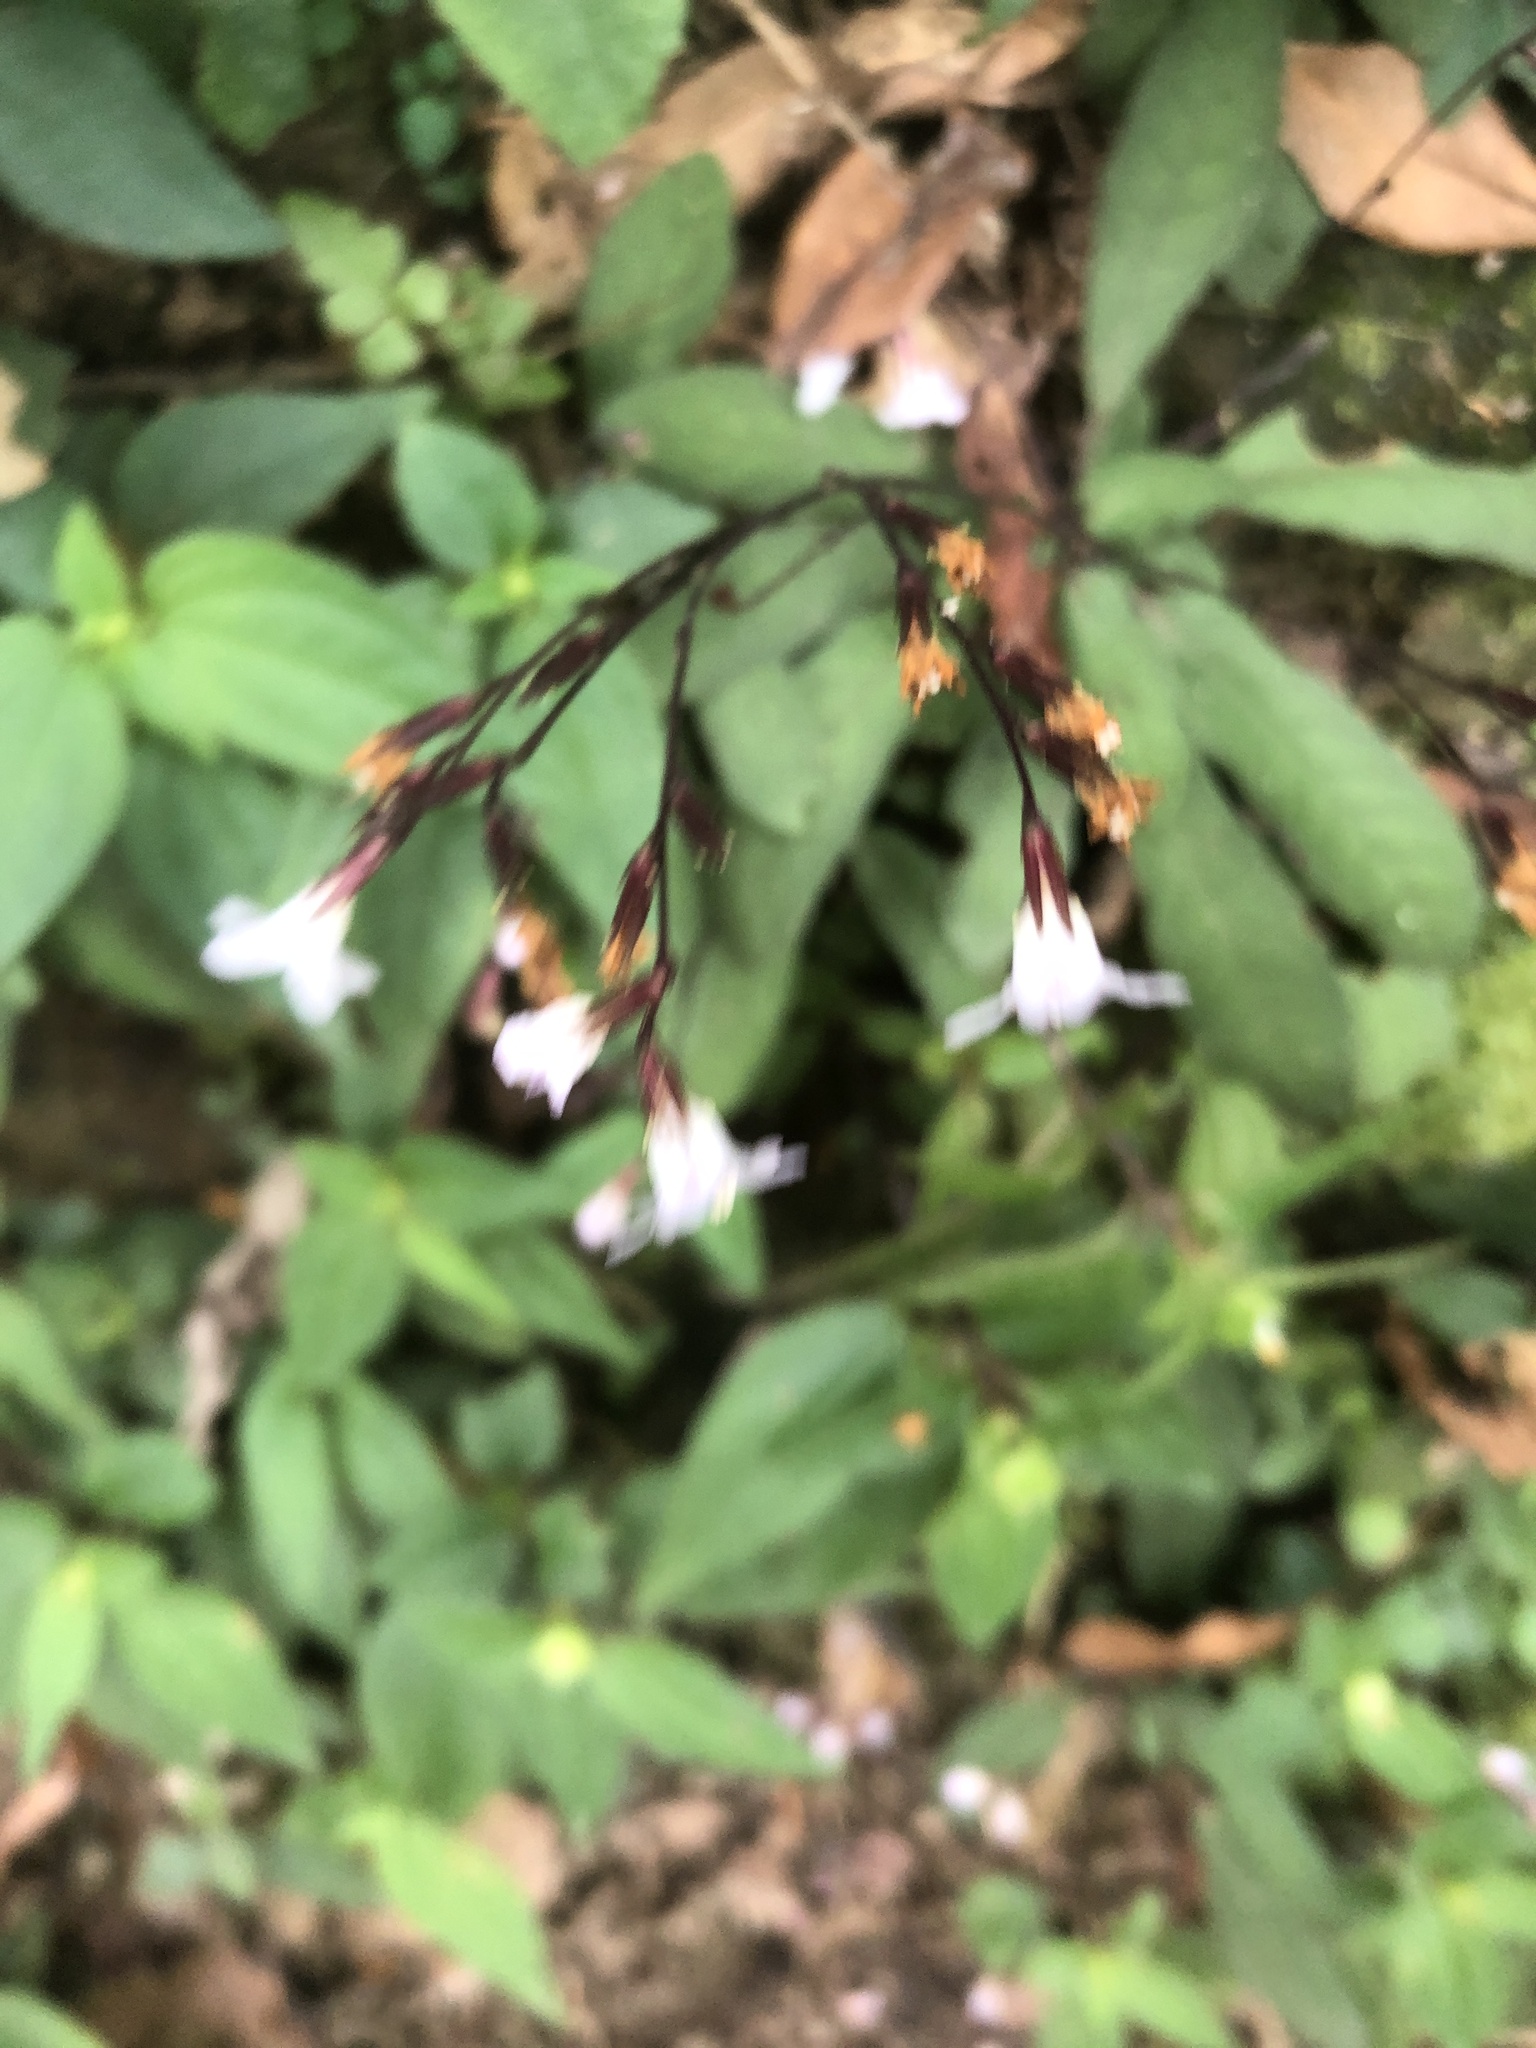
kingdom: Plantae
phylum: Tracheophyta
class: Magnoliopsida
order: Lamiales
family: Acanthaceae
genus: Staurogyne
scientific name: Staurogyne concinnula
